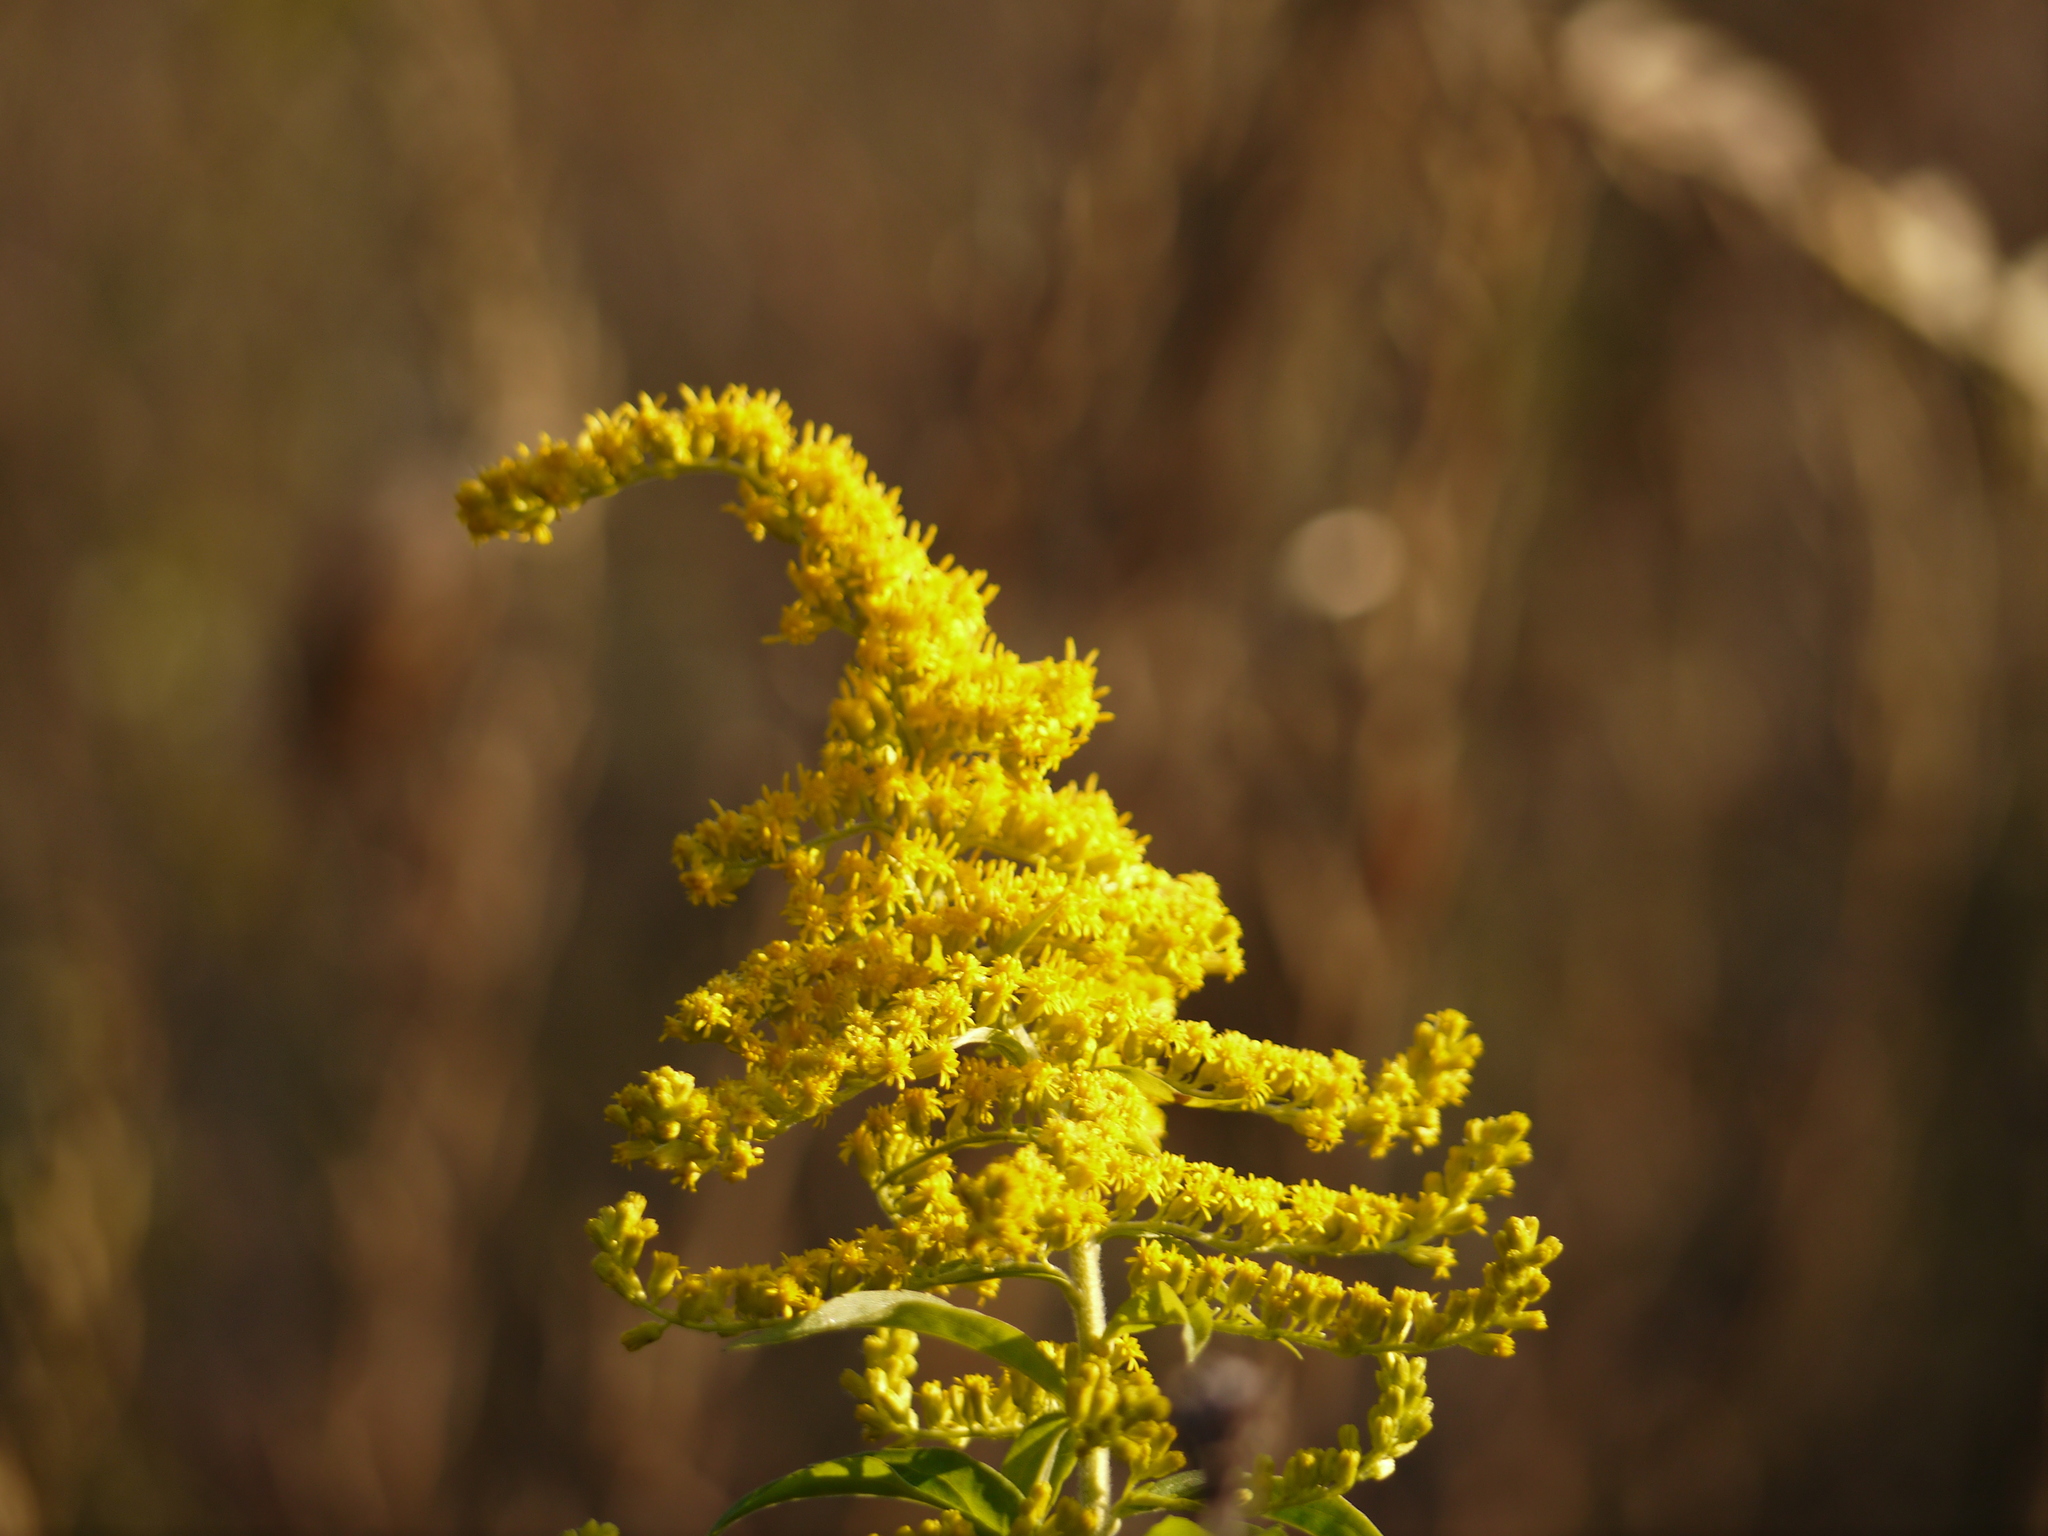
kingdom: Plantae
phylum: Tracheophyta
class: Magnoliopsida
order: Asterales
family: Asteraceae
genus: Solidago
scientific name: Solidago canadensis
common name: Canada goldenrod
